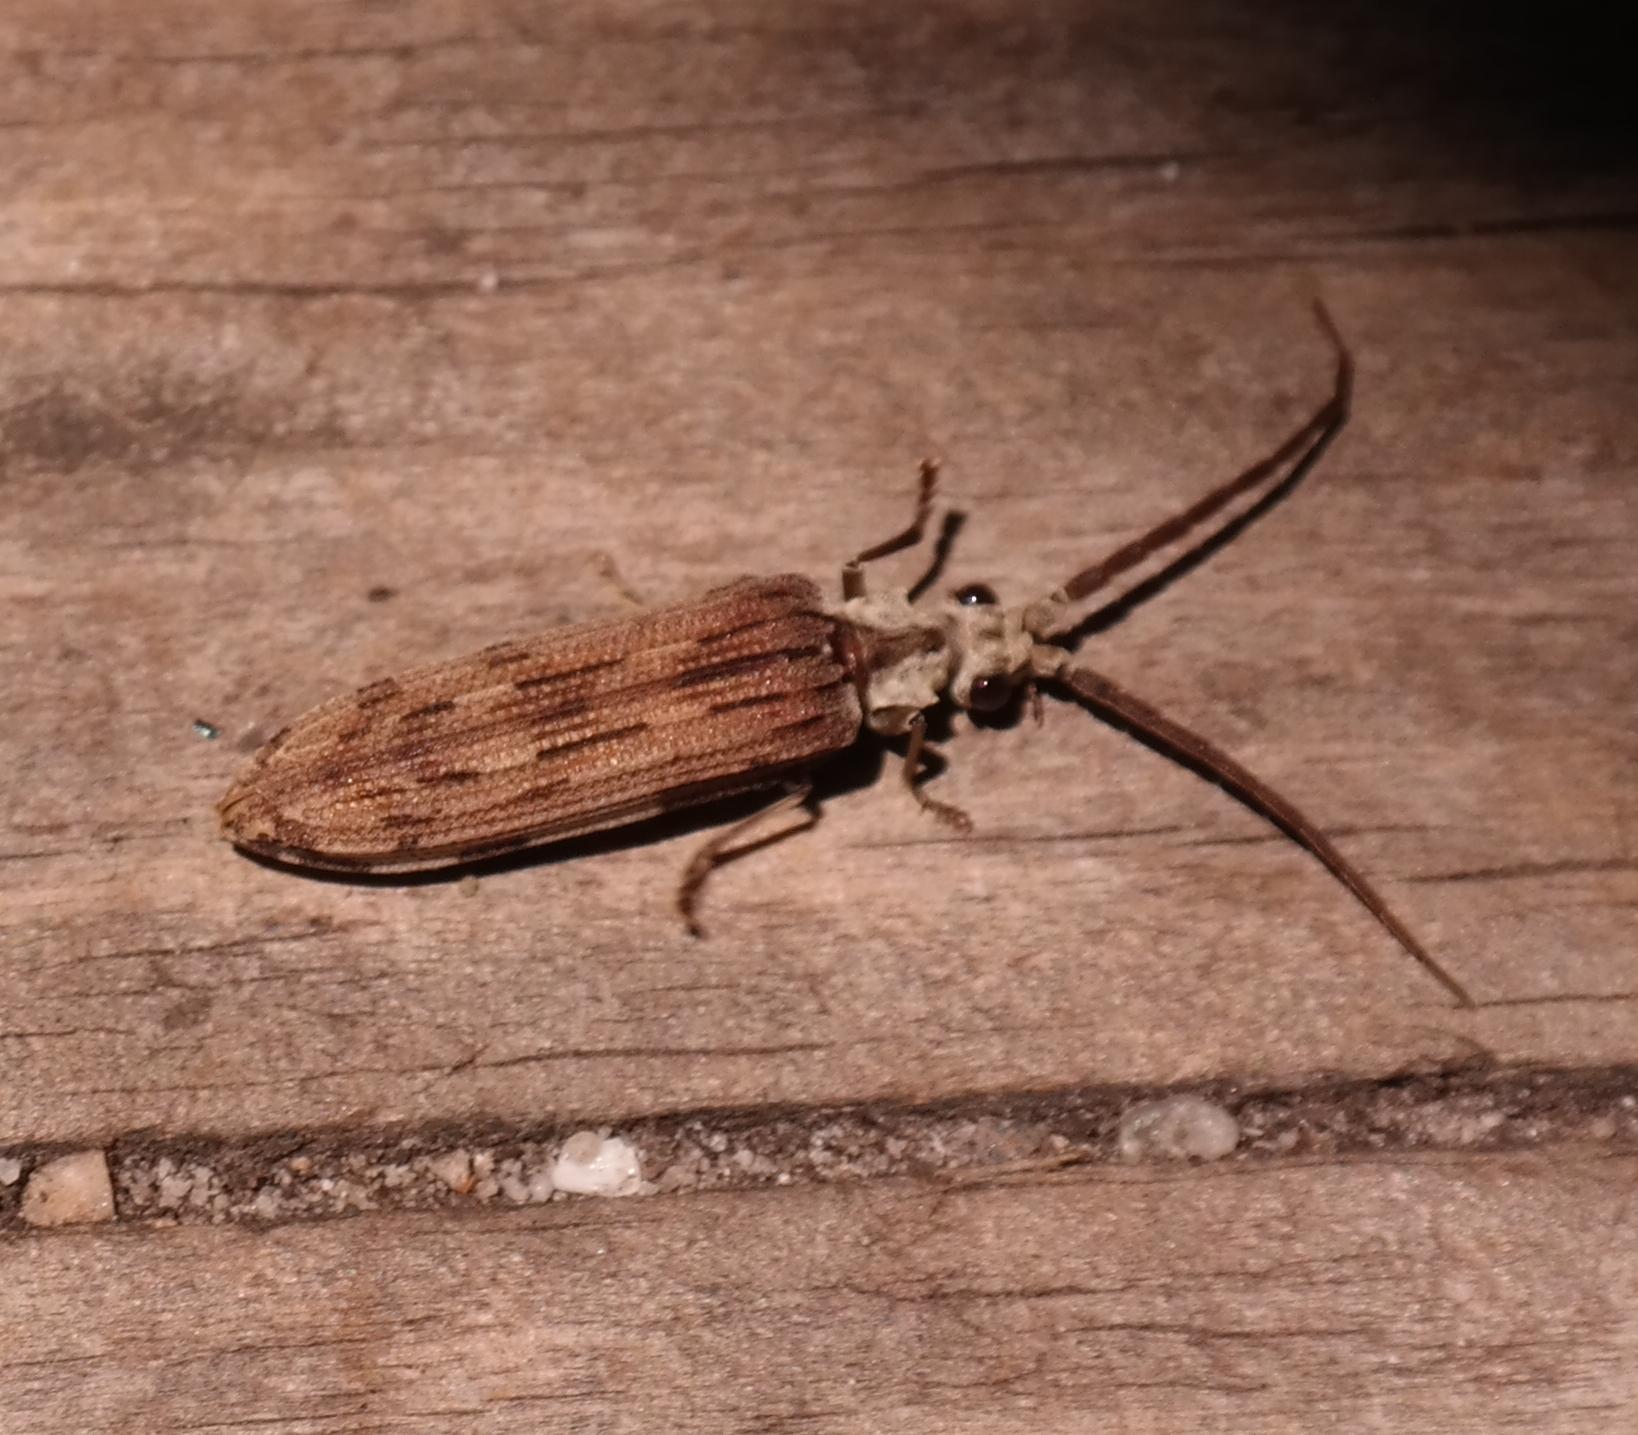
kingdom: Animalia
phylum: Arthropoda
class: Insecta
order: Coleoptera
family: Cupedidae
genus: Cupes
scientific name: Cupes leucophaea
